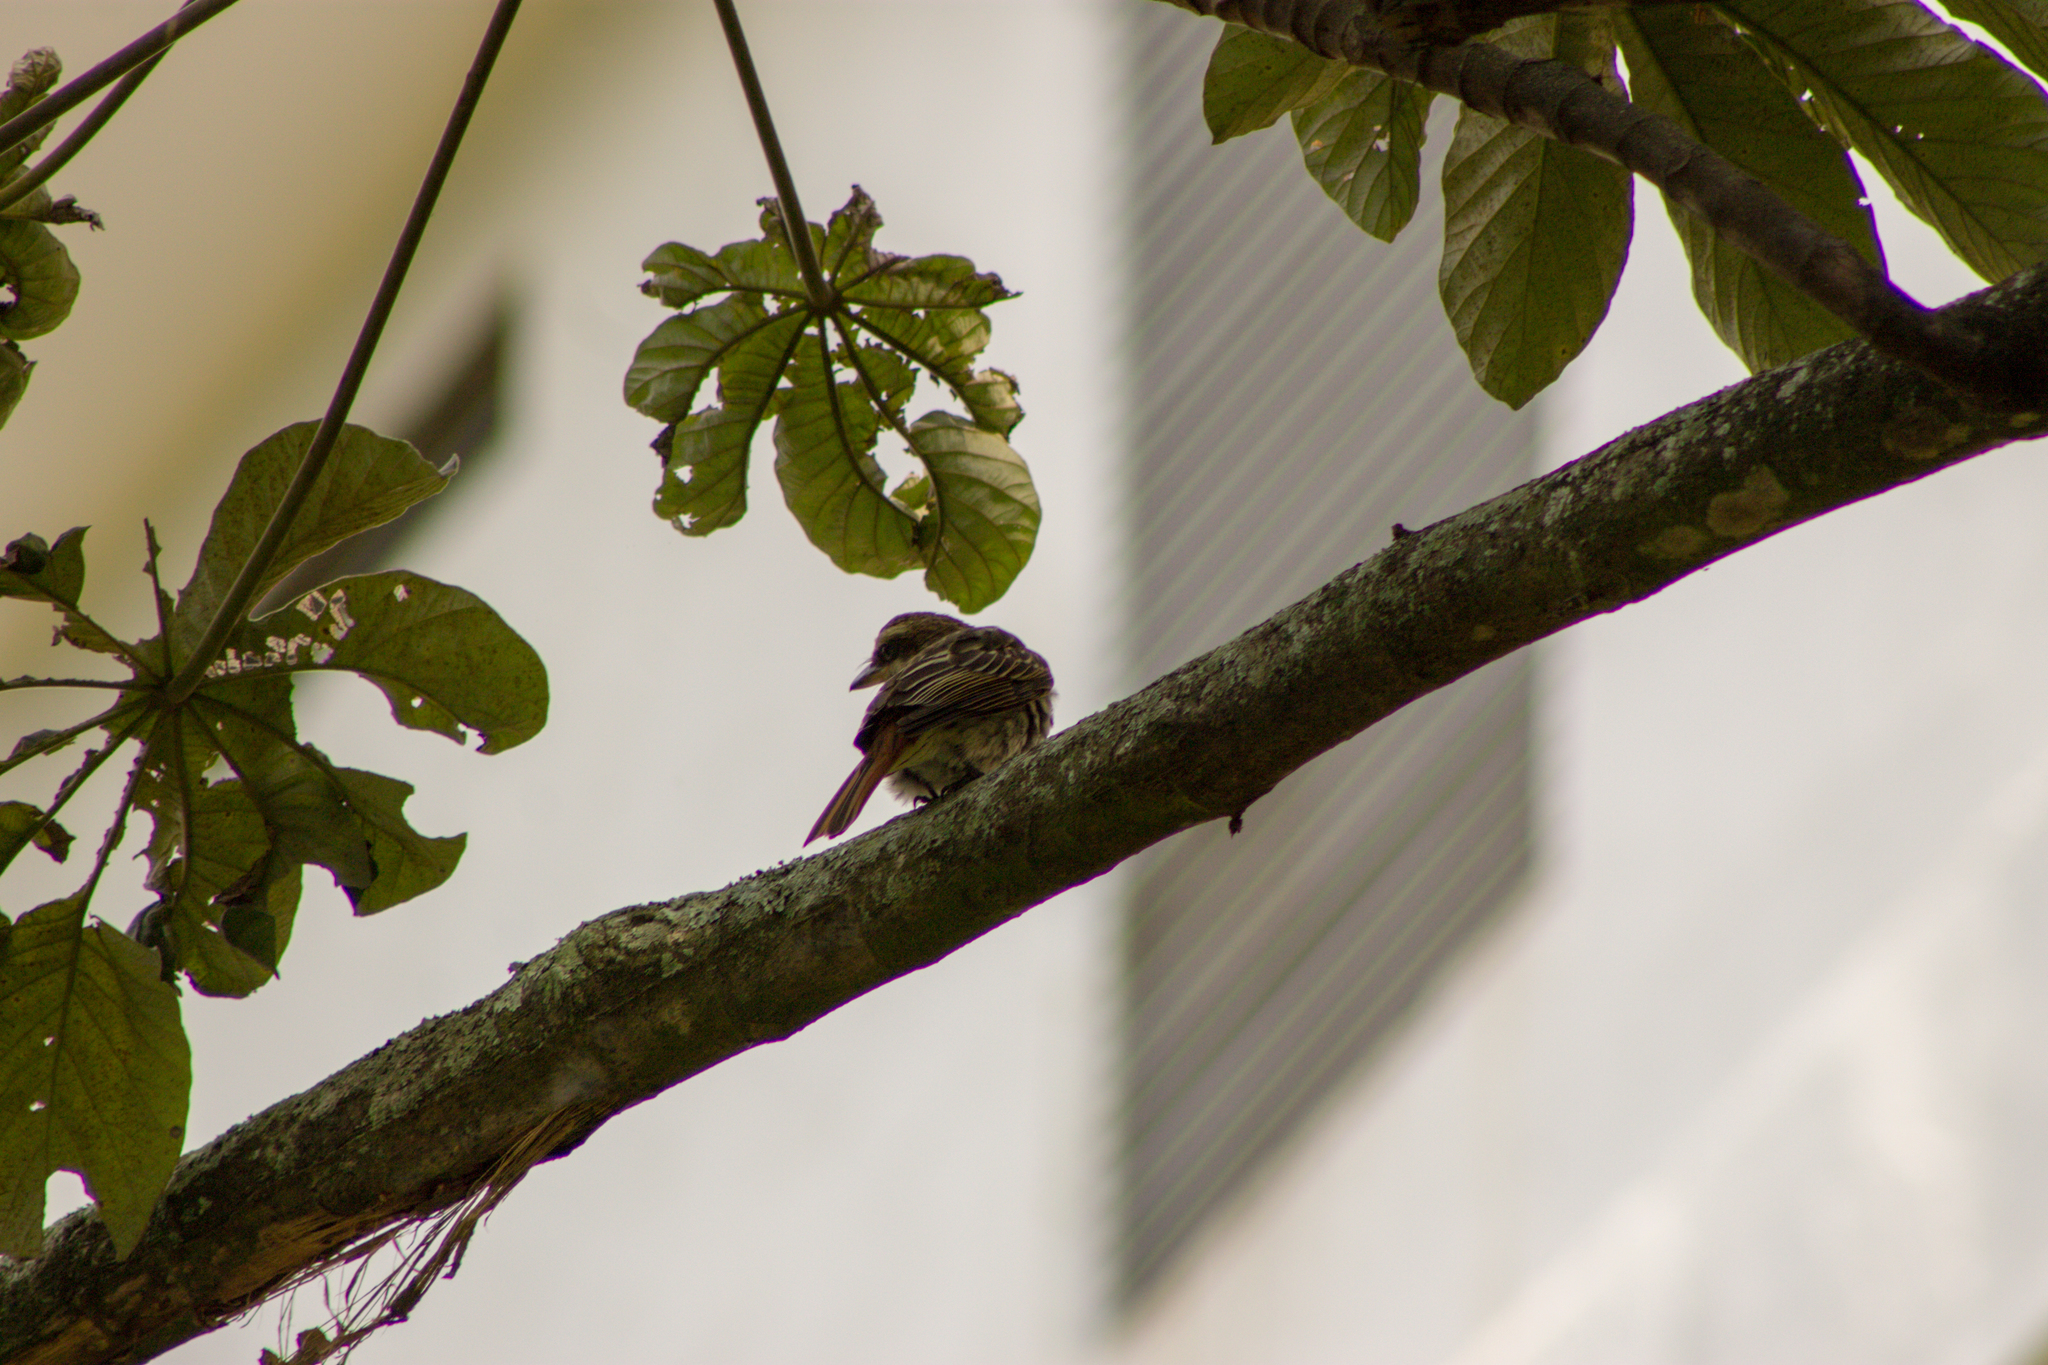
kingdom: Animalia
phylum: Chordata
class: Aves
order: Passeriformes
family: Tyrannidae
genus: Myiodynastes
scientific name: Myiodynastes maculatus
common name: Streaked flycatcher
